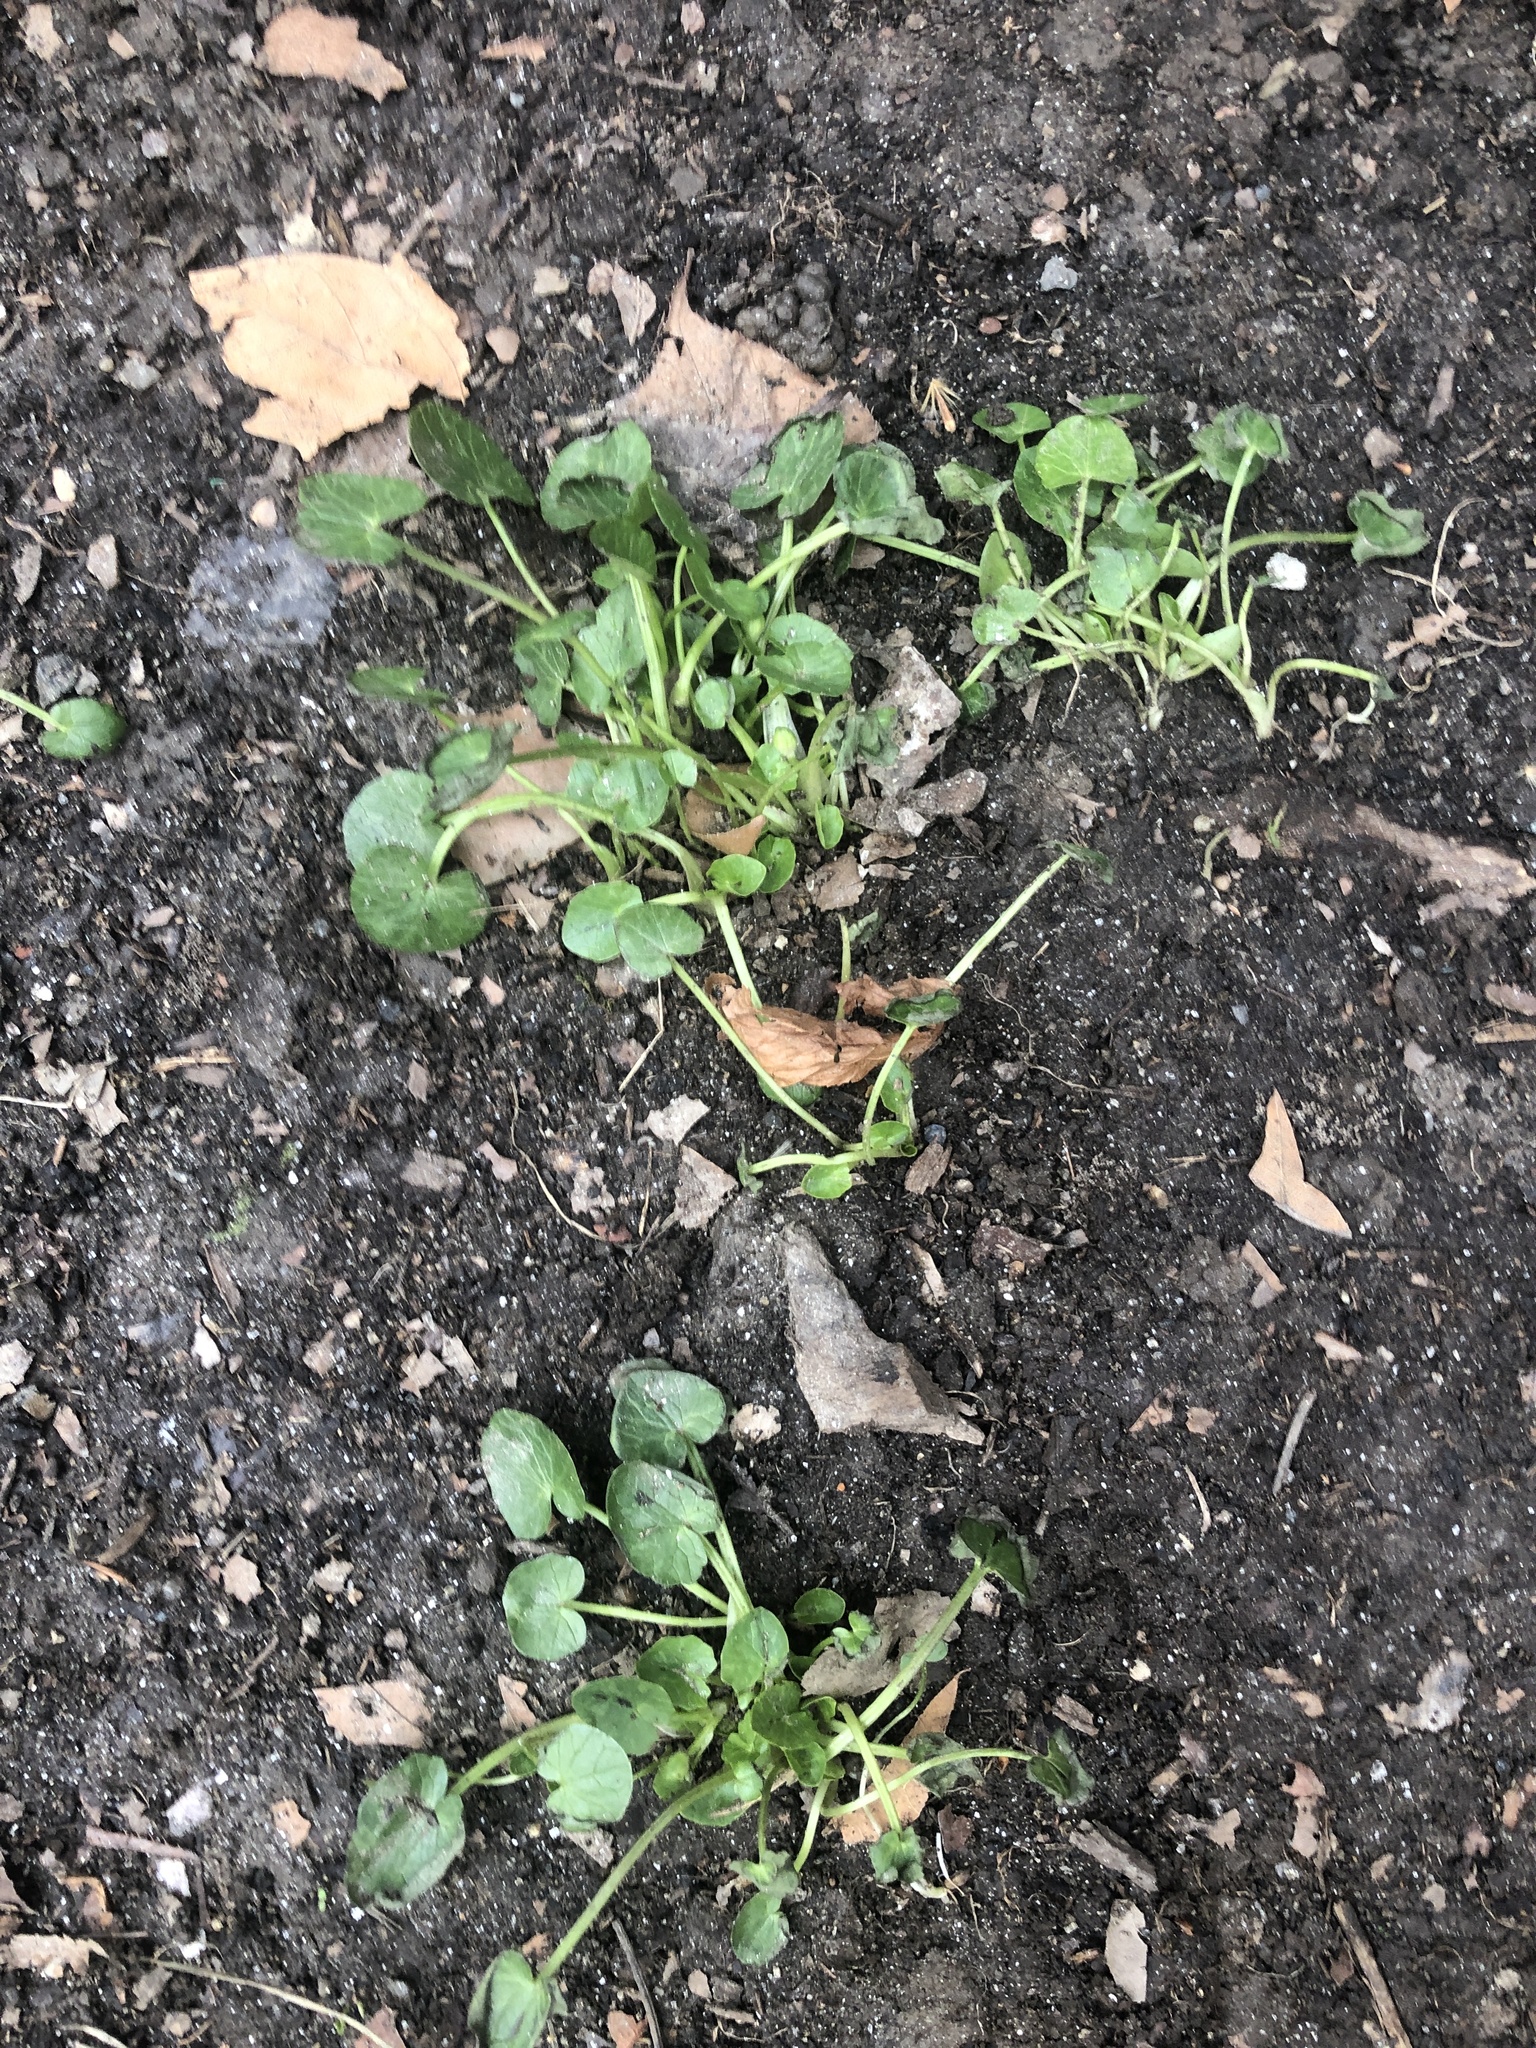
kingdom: Plantae
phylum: Tracheophyta
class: Magnoliopsida
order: Ranunculales
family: Ranunculaceae
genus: Ficaria
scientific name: Ficaria verna
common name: Lesser celandine
